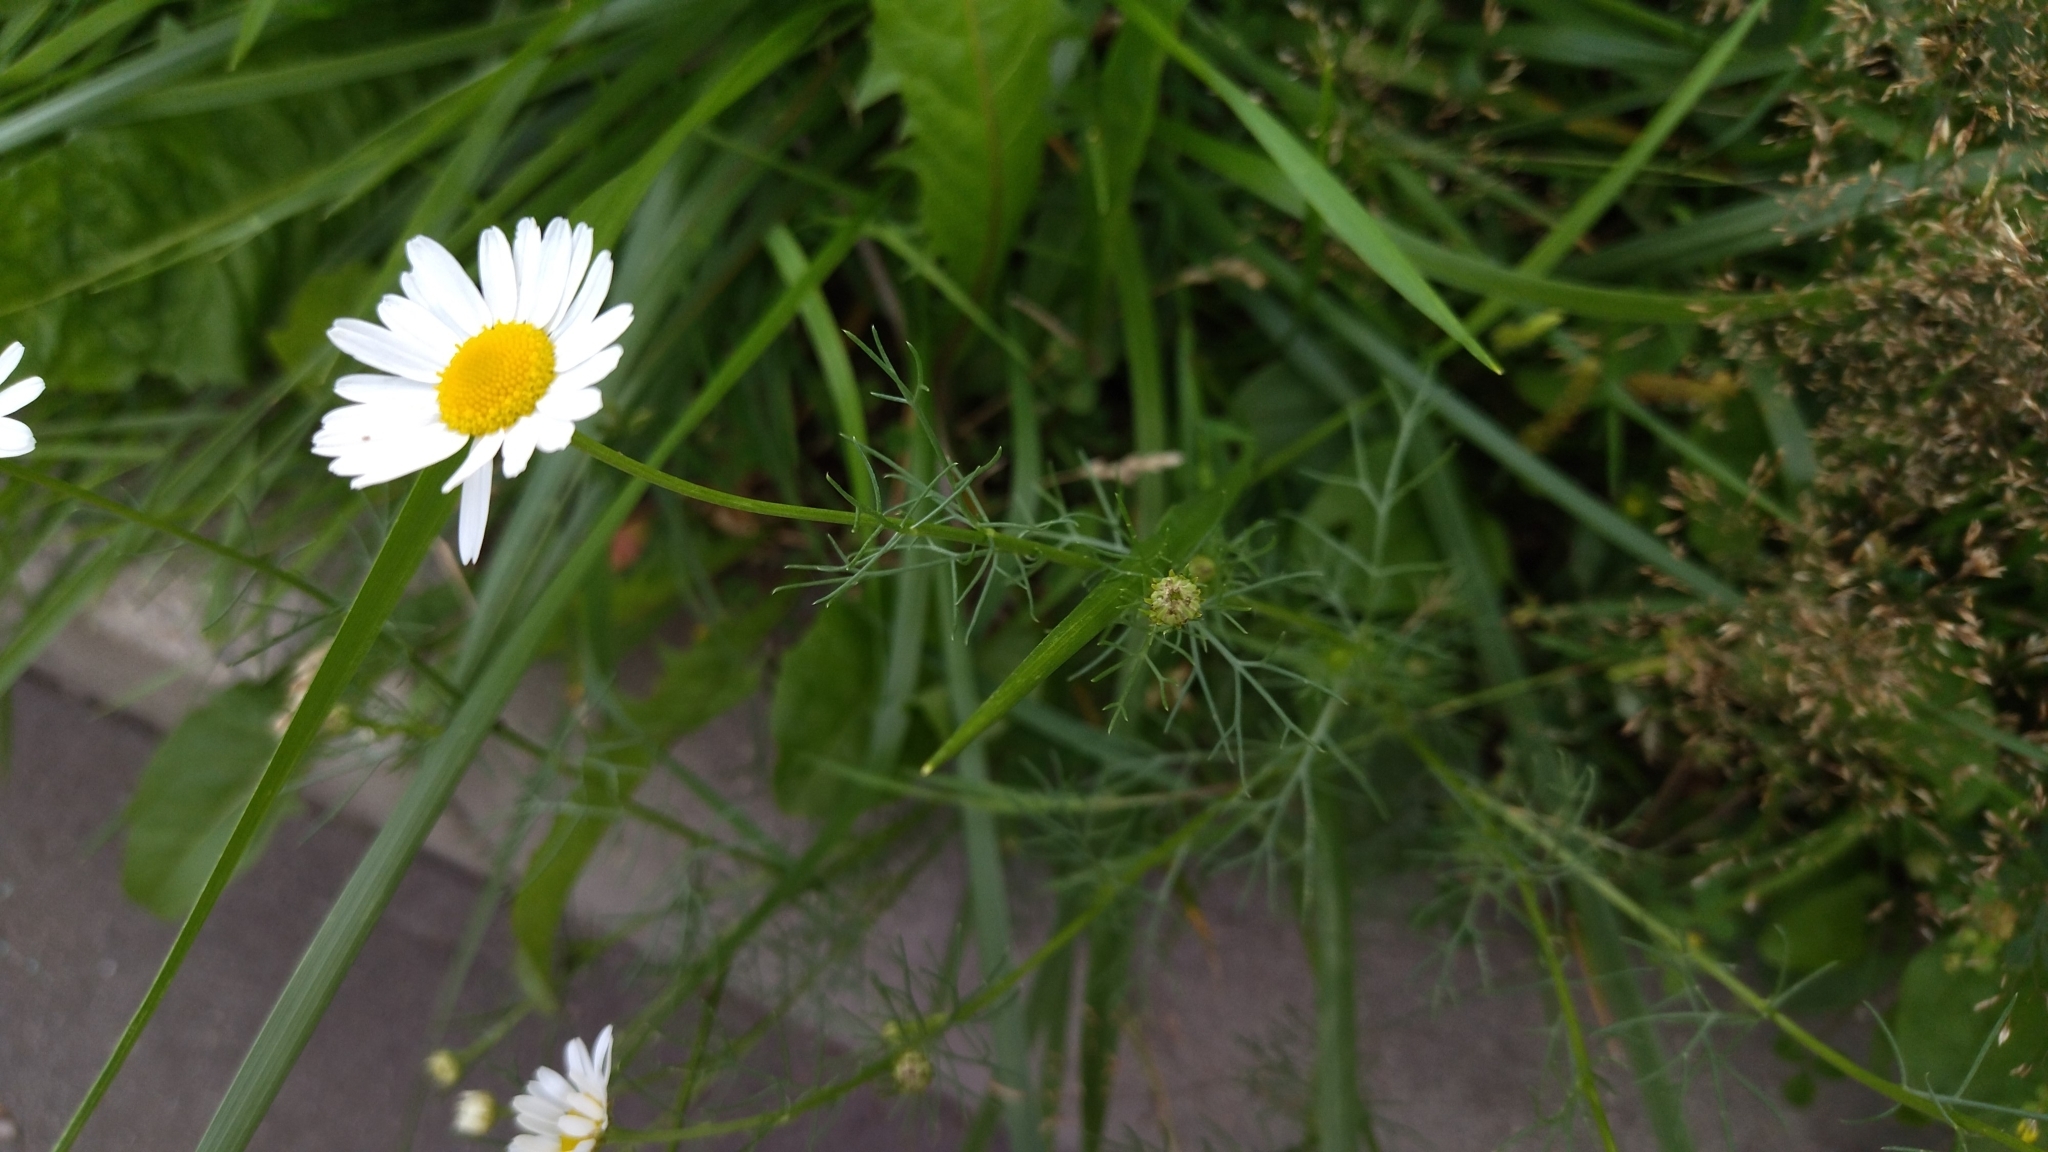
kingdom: Plantae
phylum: Tracheophyta
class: Magnoliopsida
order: Asterales
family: Asteraceae
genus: Tripleurospermum
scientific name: Tripleurospermum inodorum
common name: Scentless mayweed
